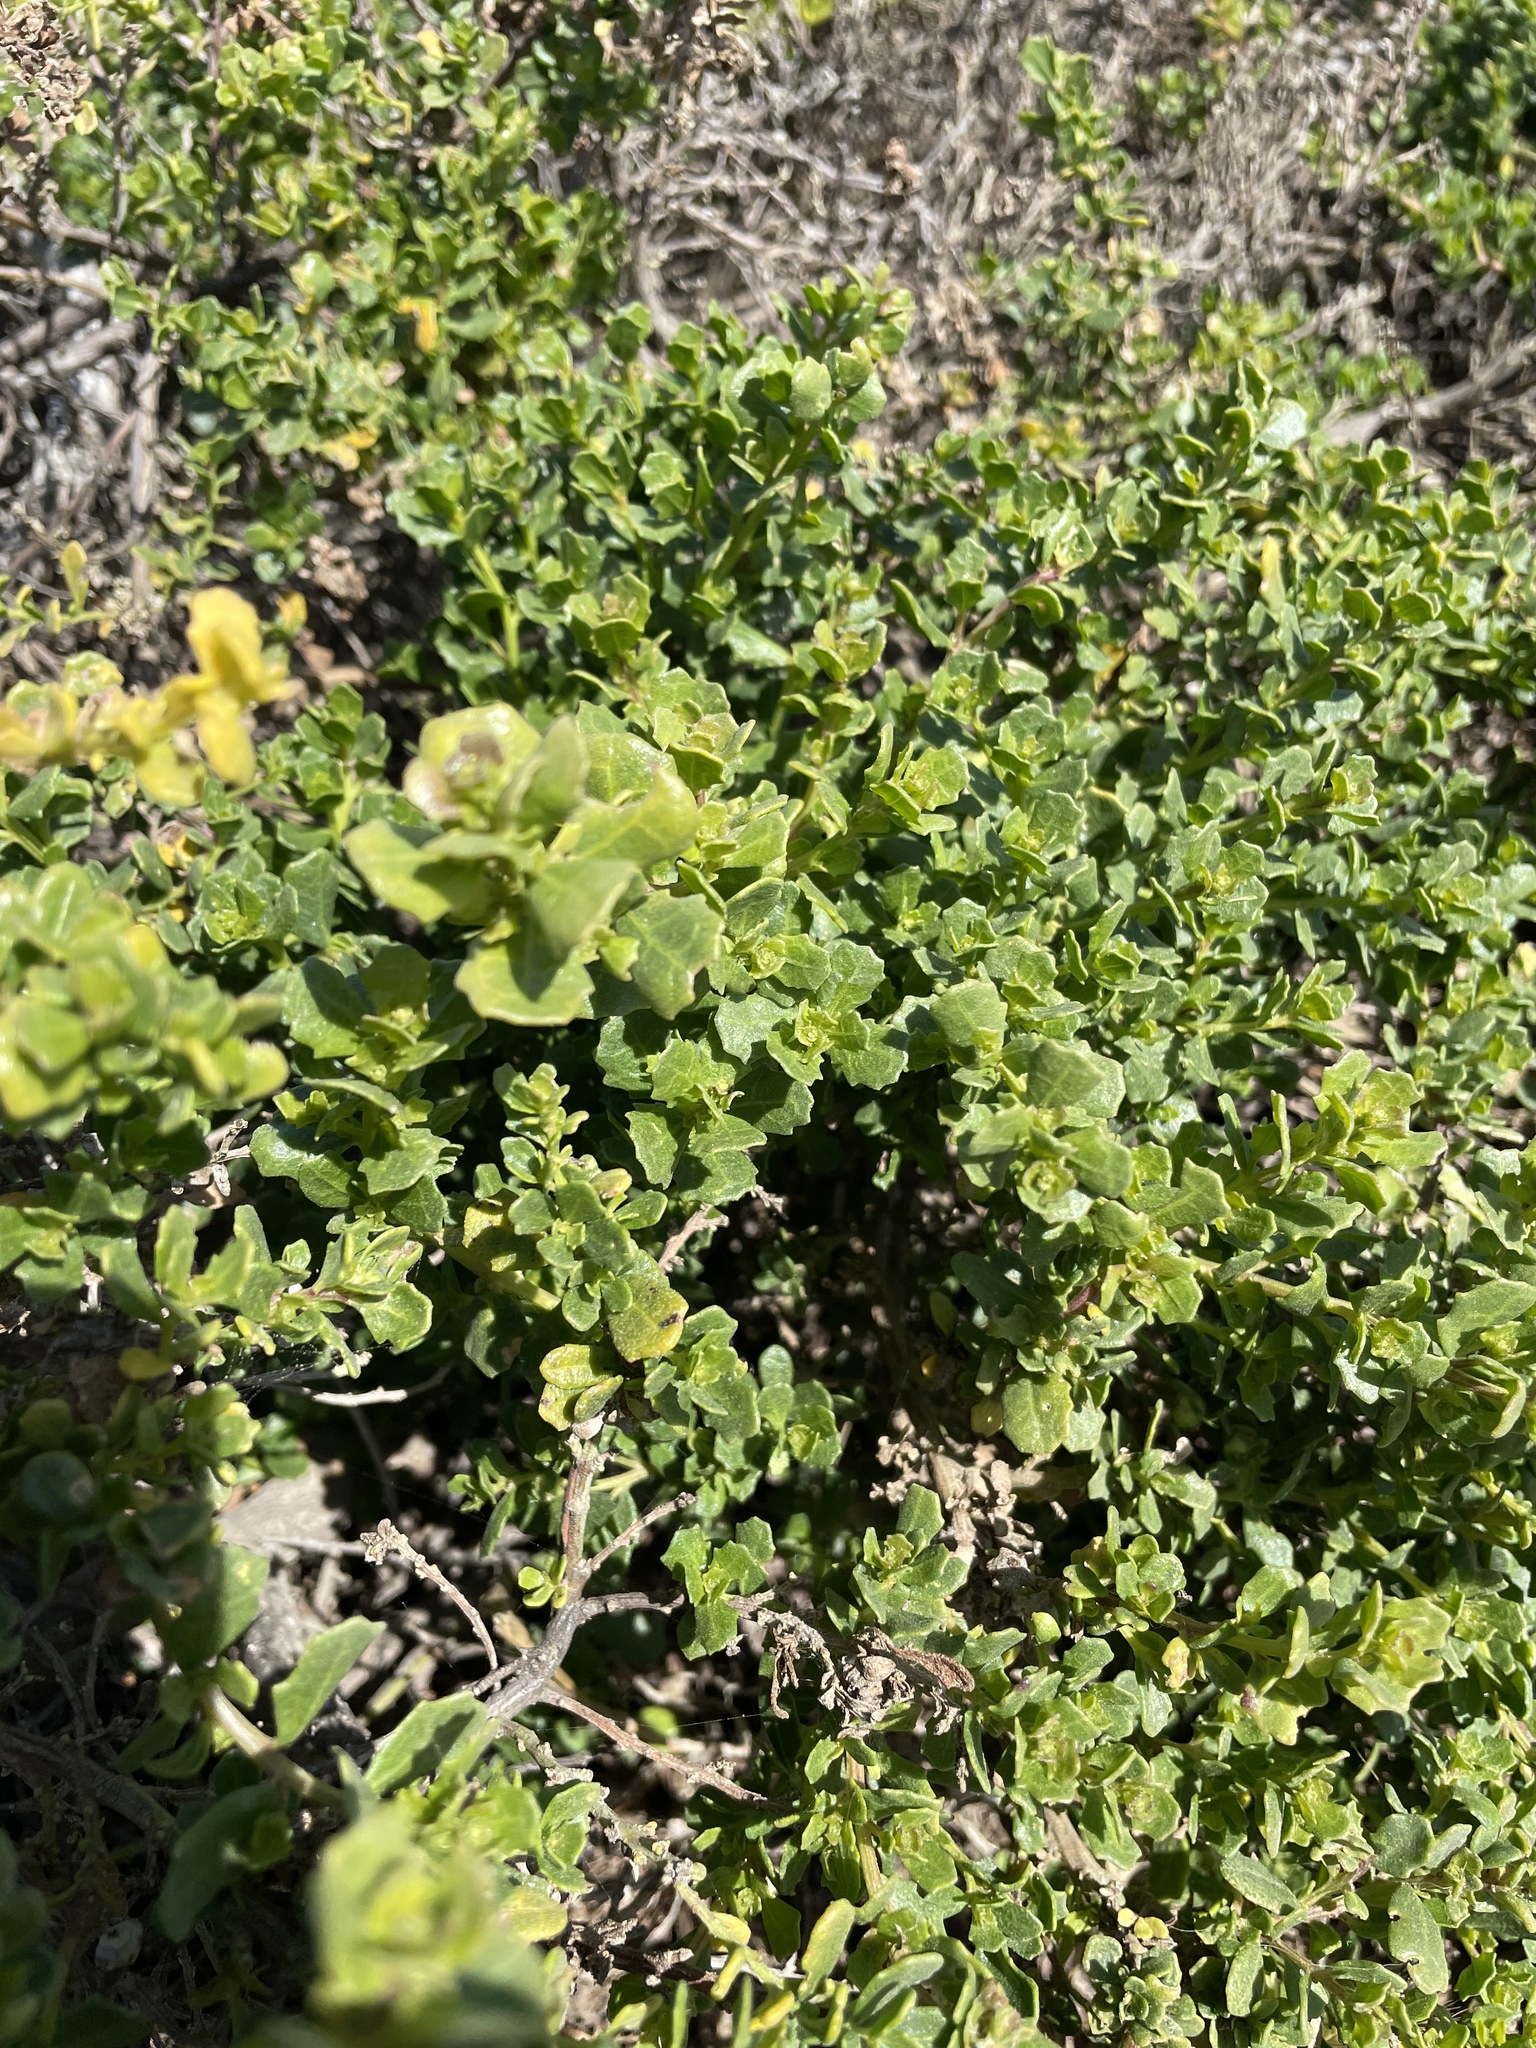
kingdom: Plantae
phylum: Tracheophyta
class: Magnoliopsida
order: Asterales
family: Asteraceae
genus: Baccharis
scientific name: Baccharis pilularis
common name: Coyotebrush
